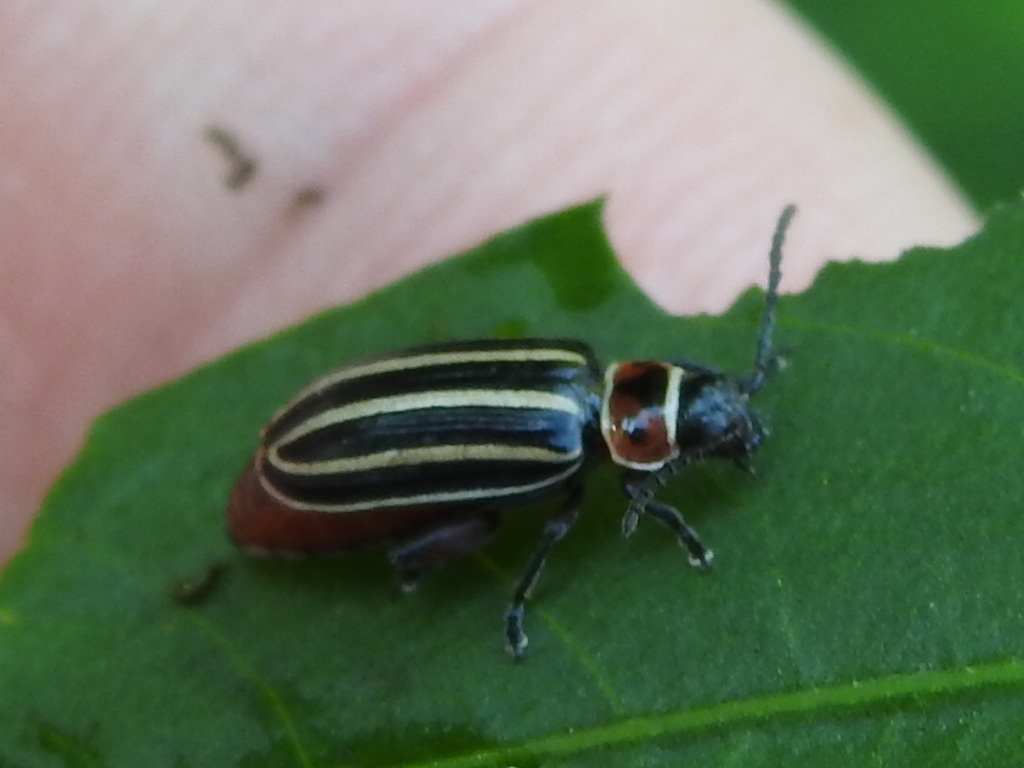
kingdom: Animalia
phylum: Arthropoda
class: Insecta
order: Coleoptera
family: Chrysomelidae
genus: Disonycha
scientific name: Disonycha procera
